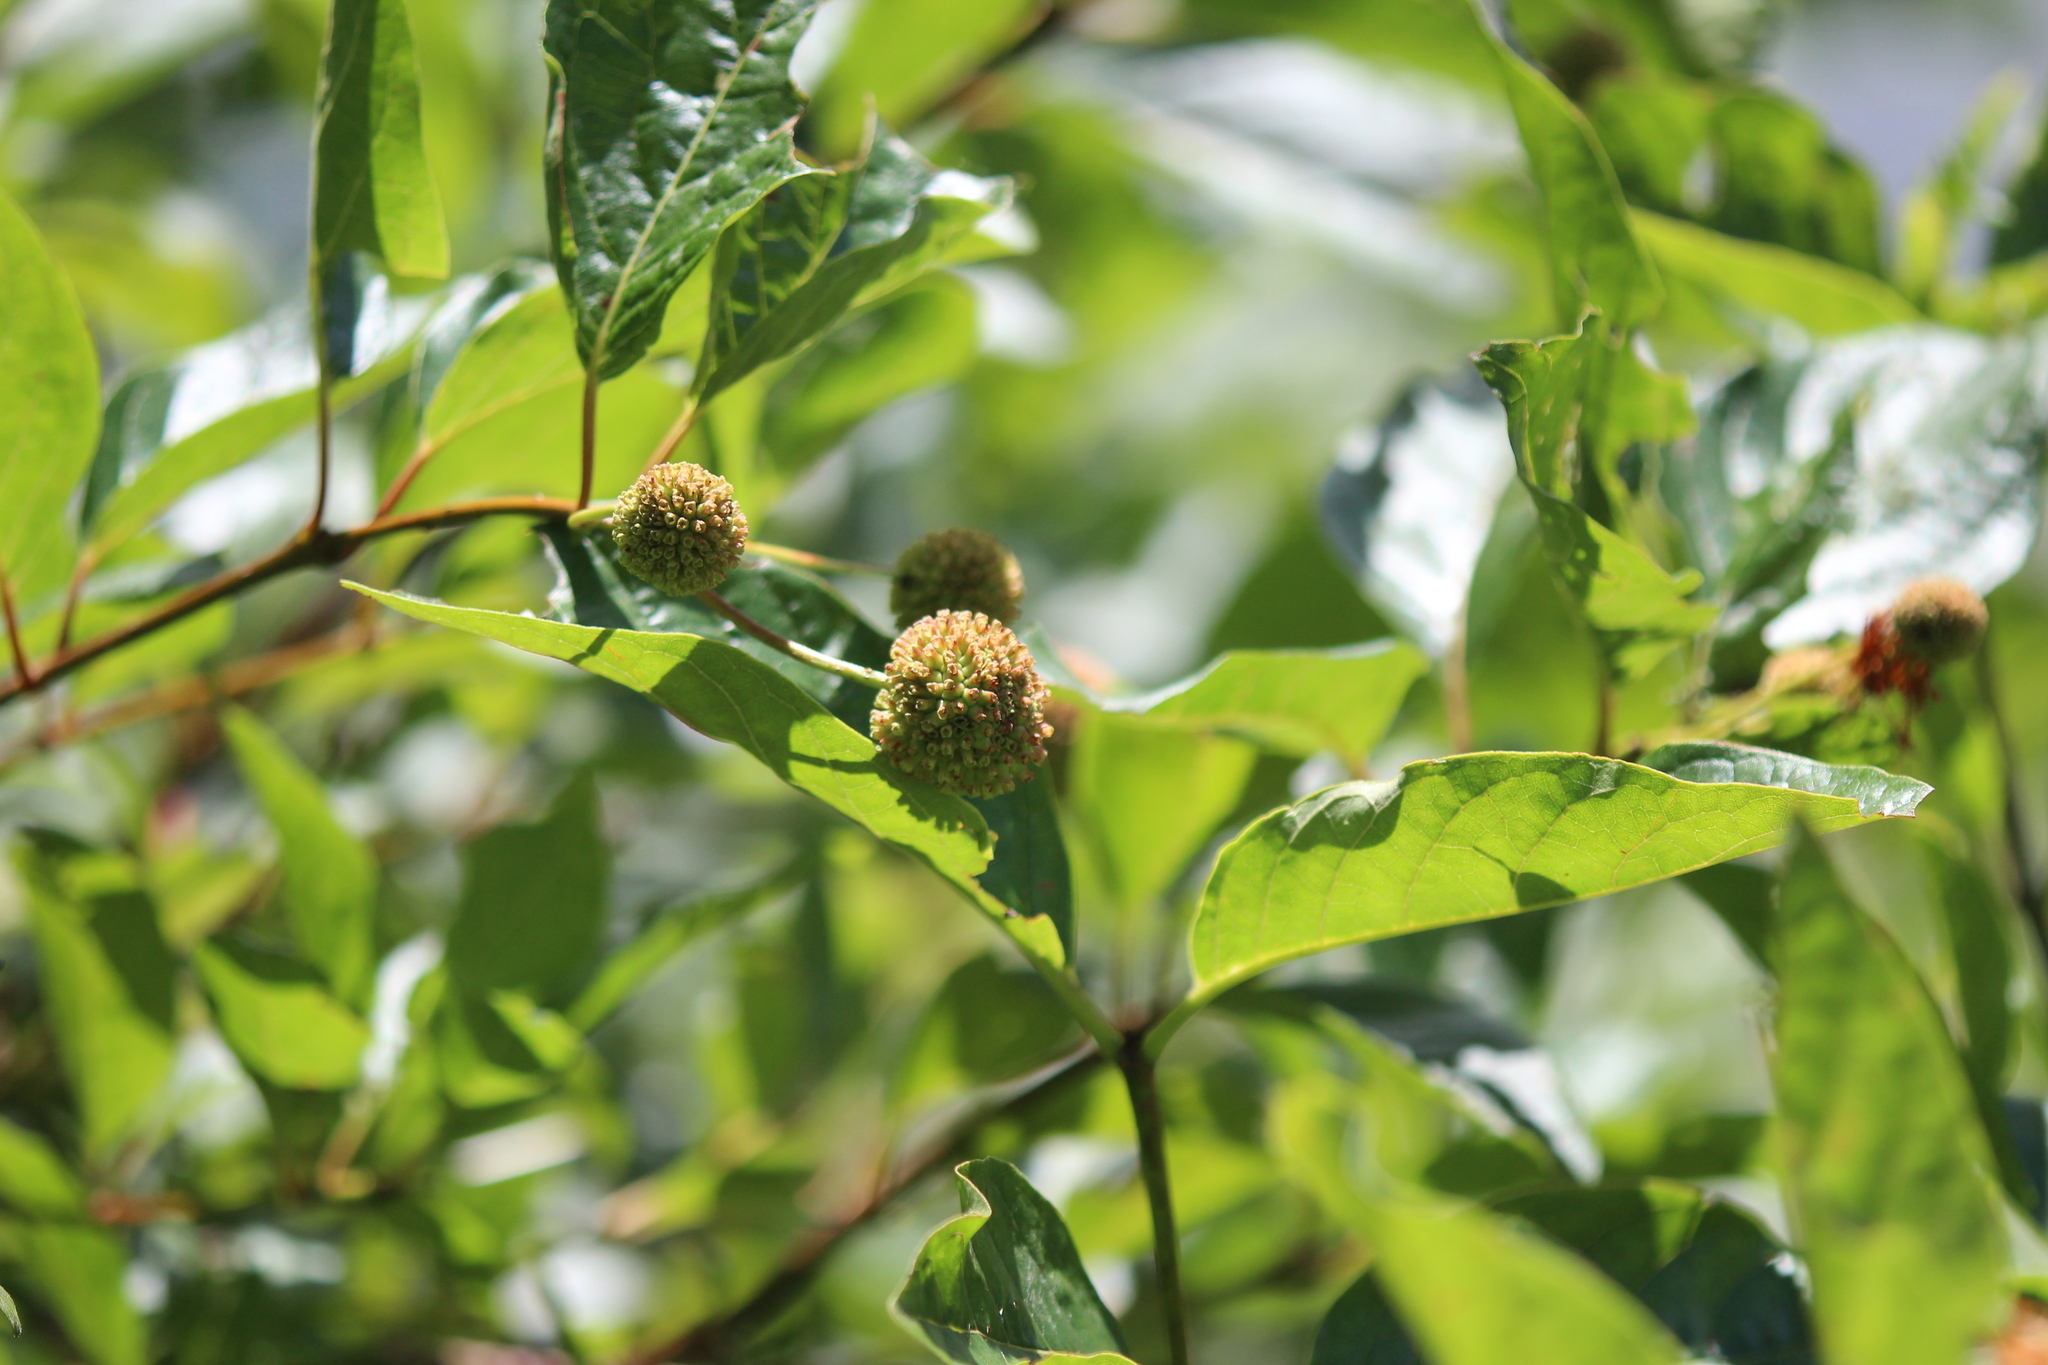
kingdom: Plantae
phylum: Tracheophyta
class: Magnoliopsida
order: Gentianales
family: Rubiaceae
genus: Cephalanthus
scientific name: Cephalanthus occidentalis
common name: Button-willow
